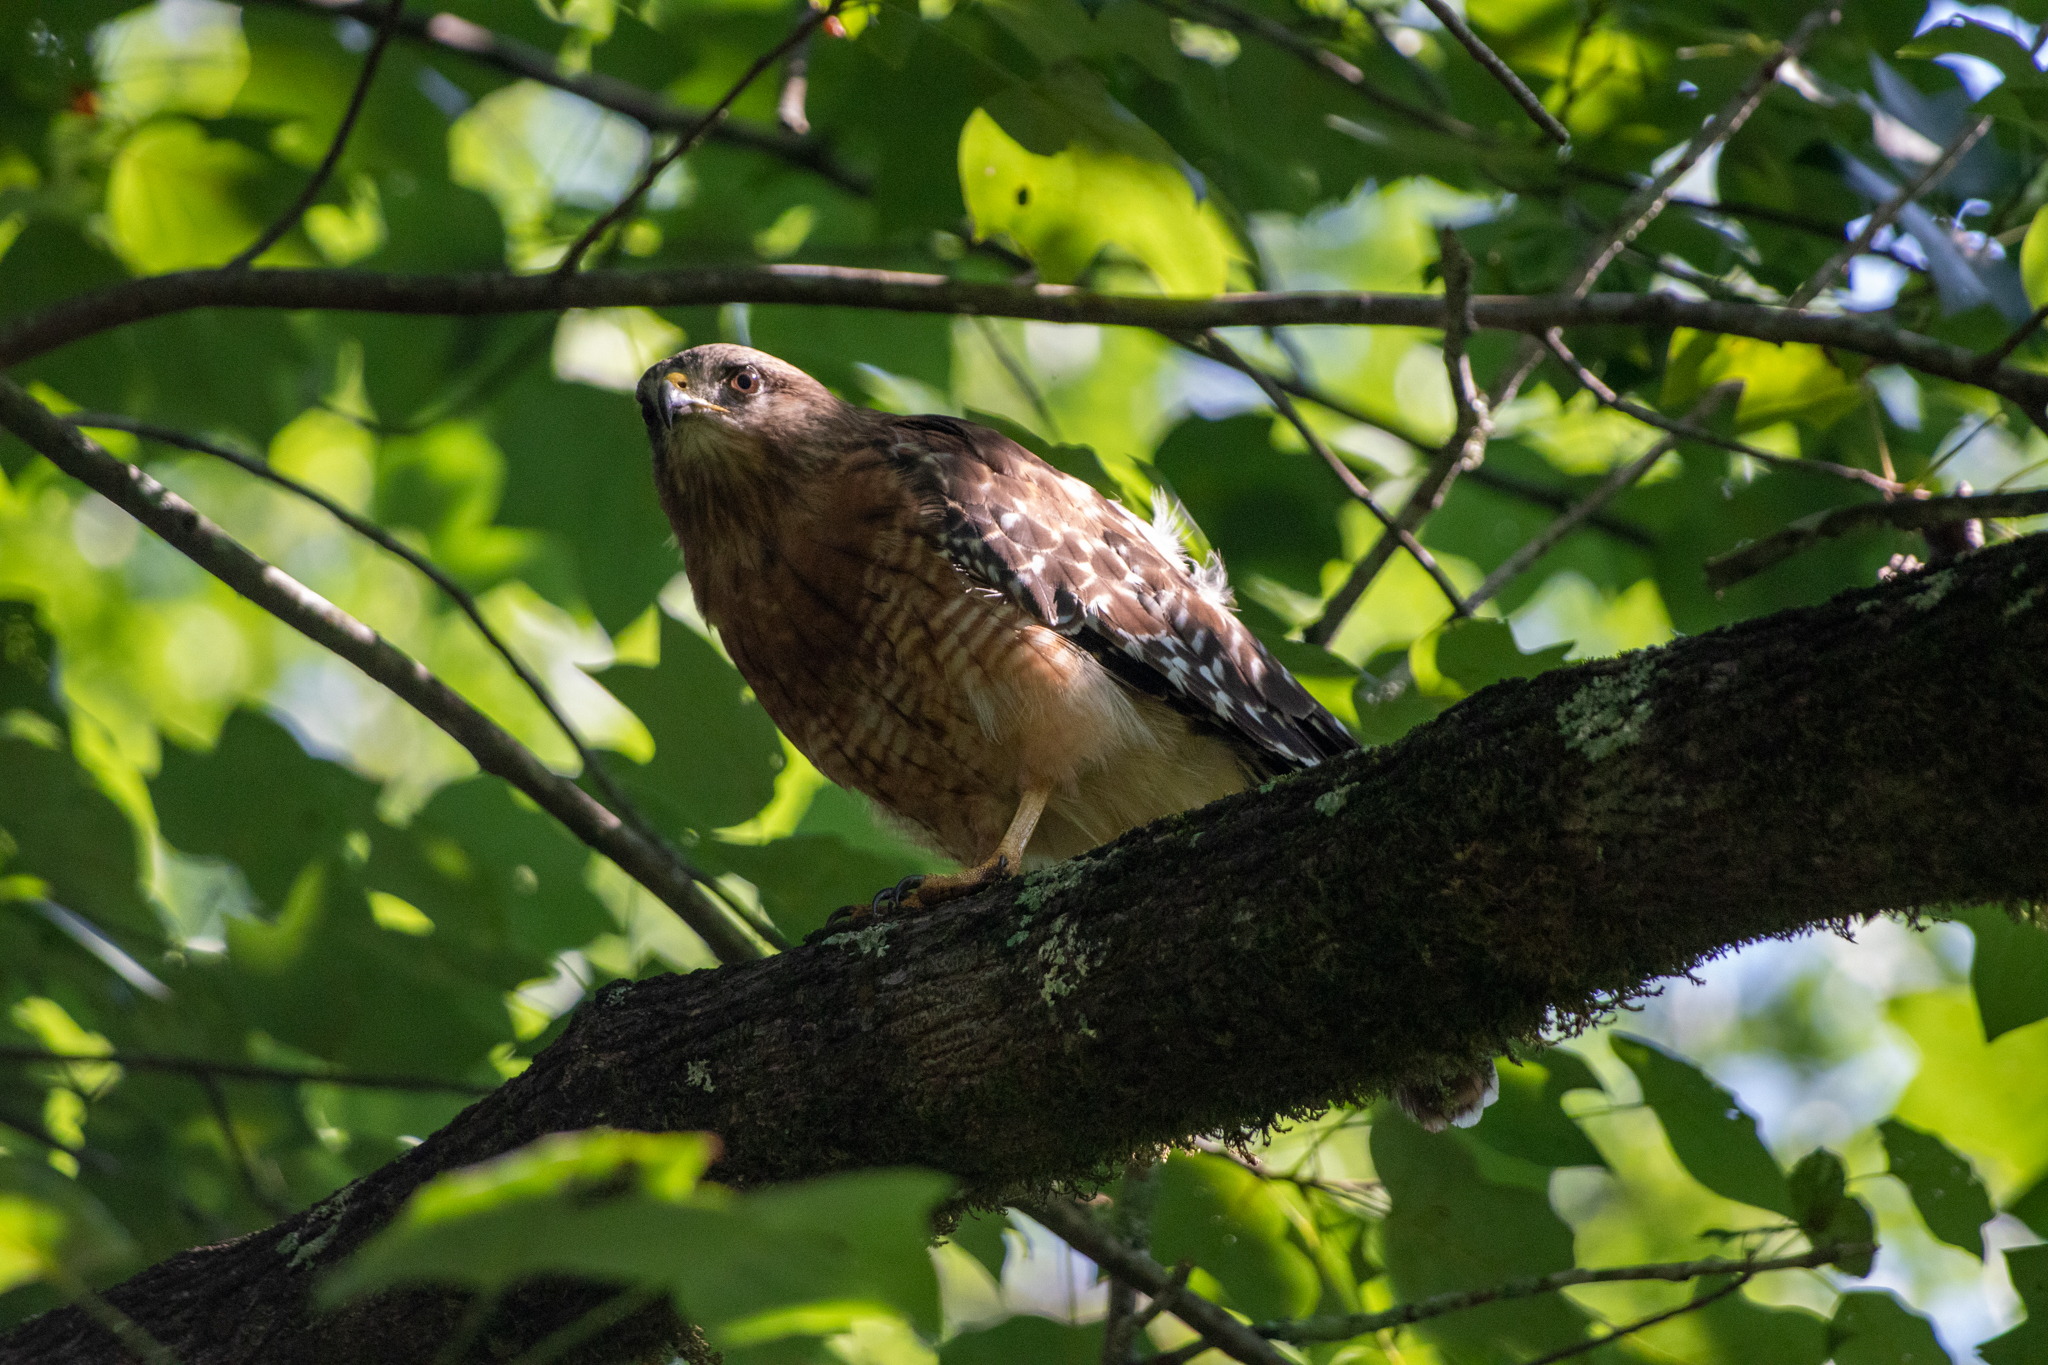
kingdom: Animalia
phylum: Chordata
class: Aves
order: Accipitriformes
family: Accipitridae
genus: Buteo
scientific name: Buteo lineatus
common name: Red-shouldered hawk
